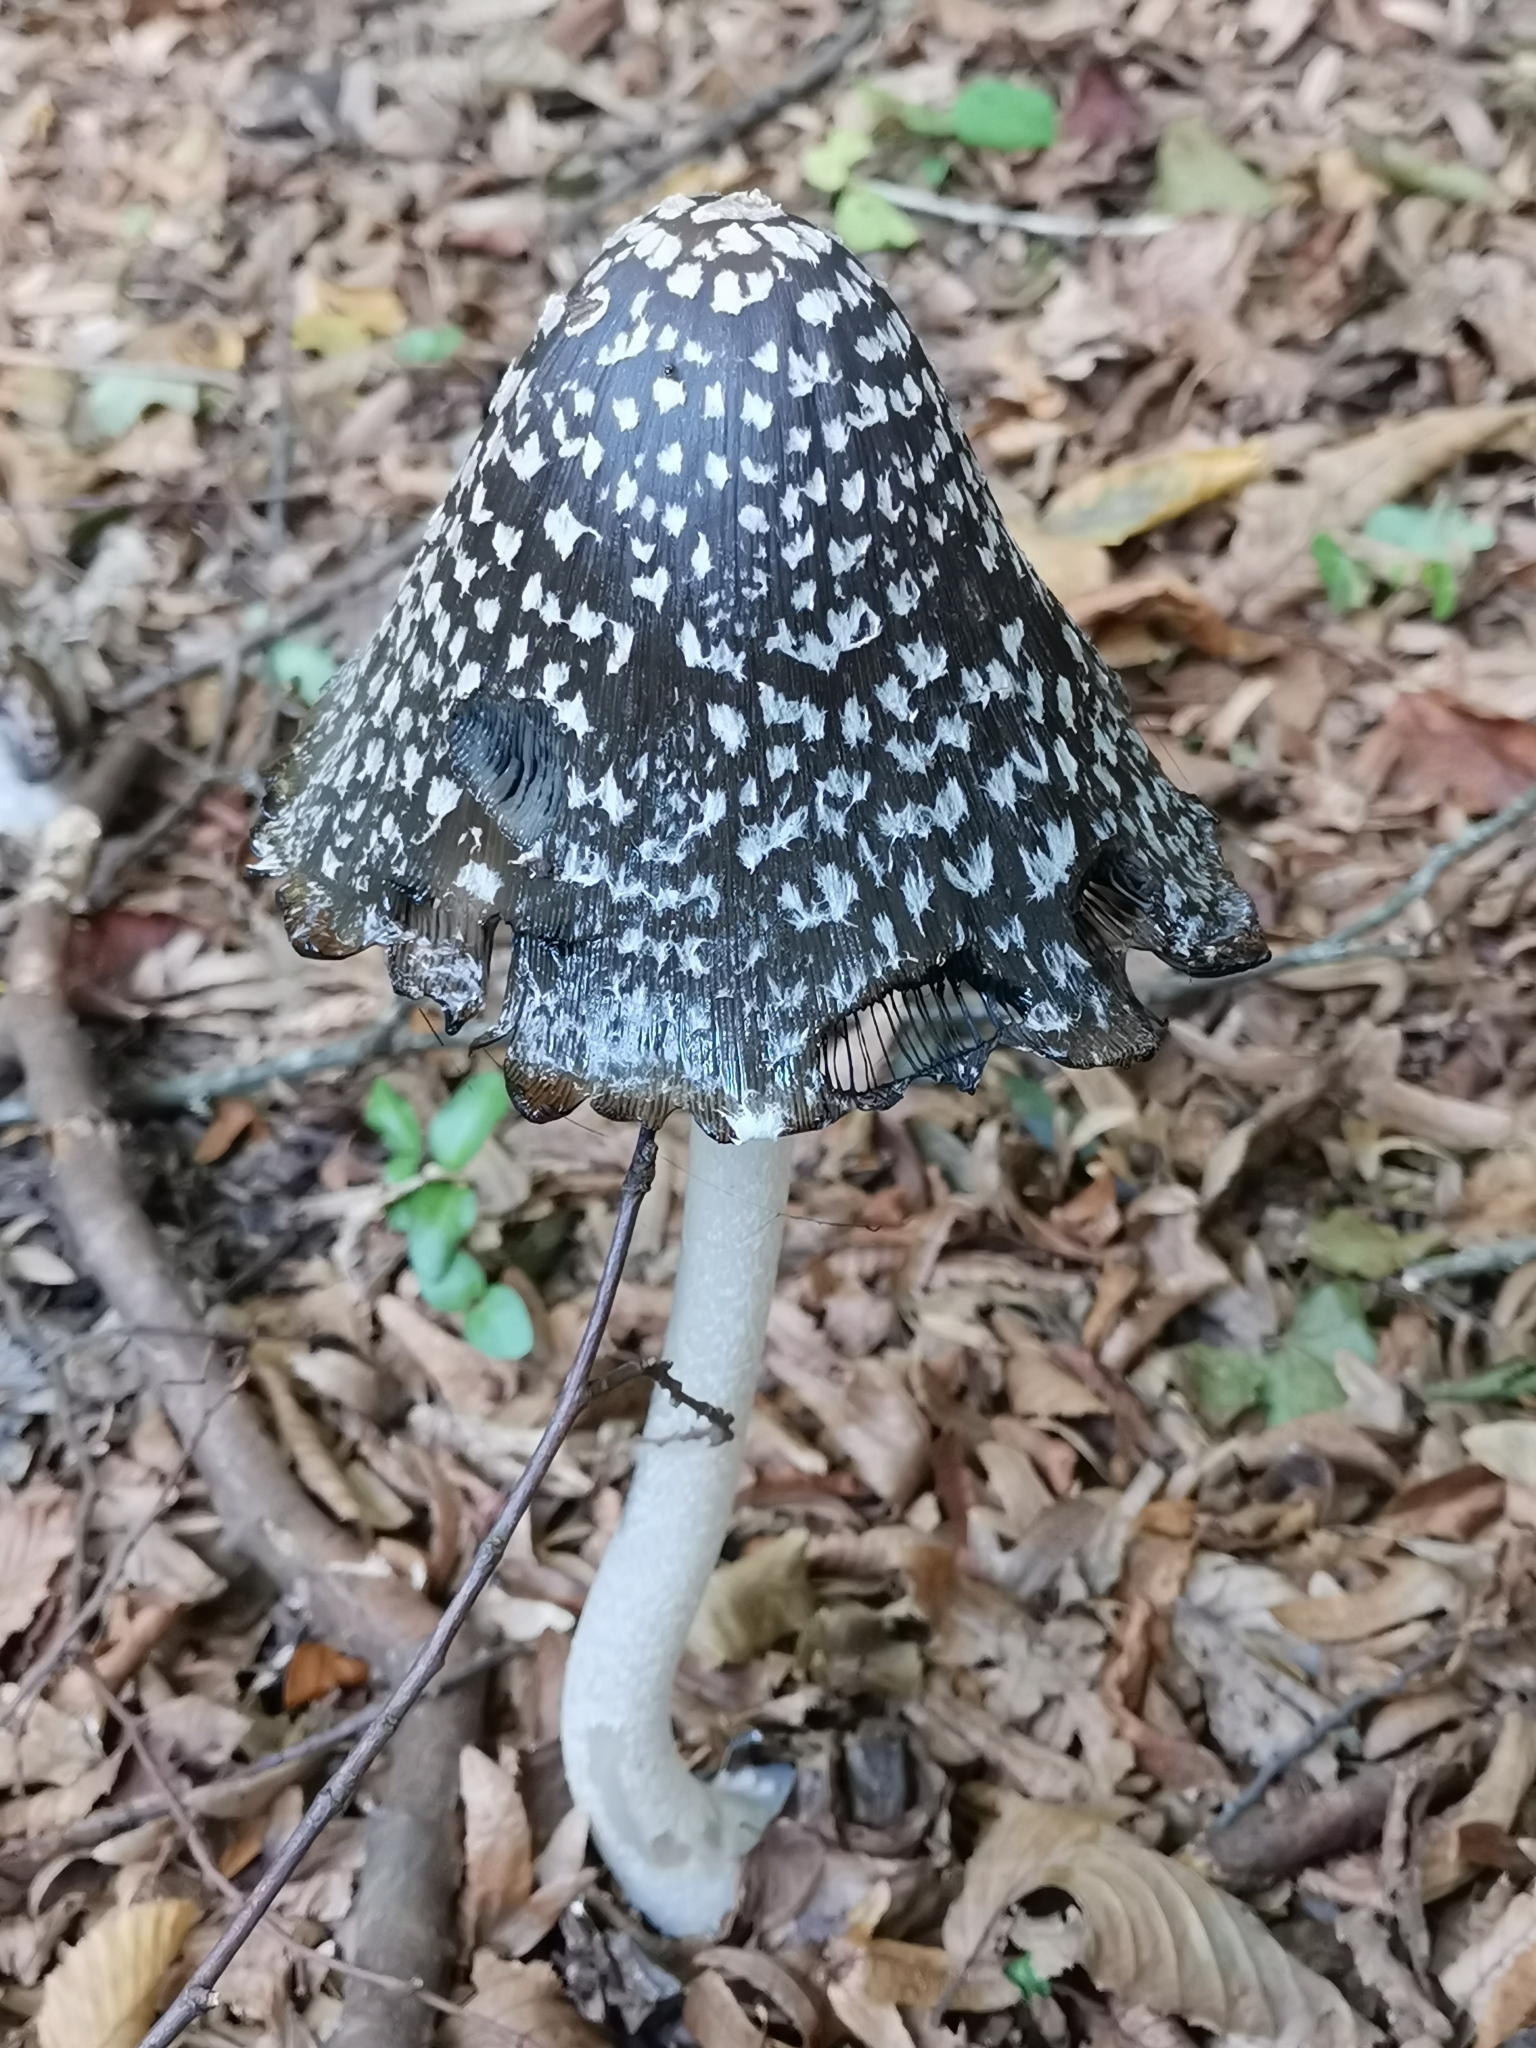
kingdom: Fungi
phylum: Basidiomycota
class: Agaricomycetes
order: Agaricales
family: Psathyrellaceae
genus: Coprinopsis
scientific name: Coprinopsis picacea
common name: Magpie inkcap
